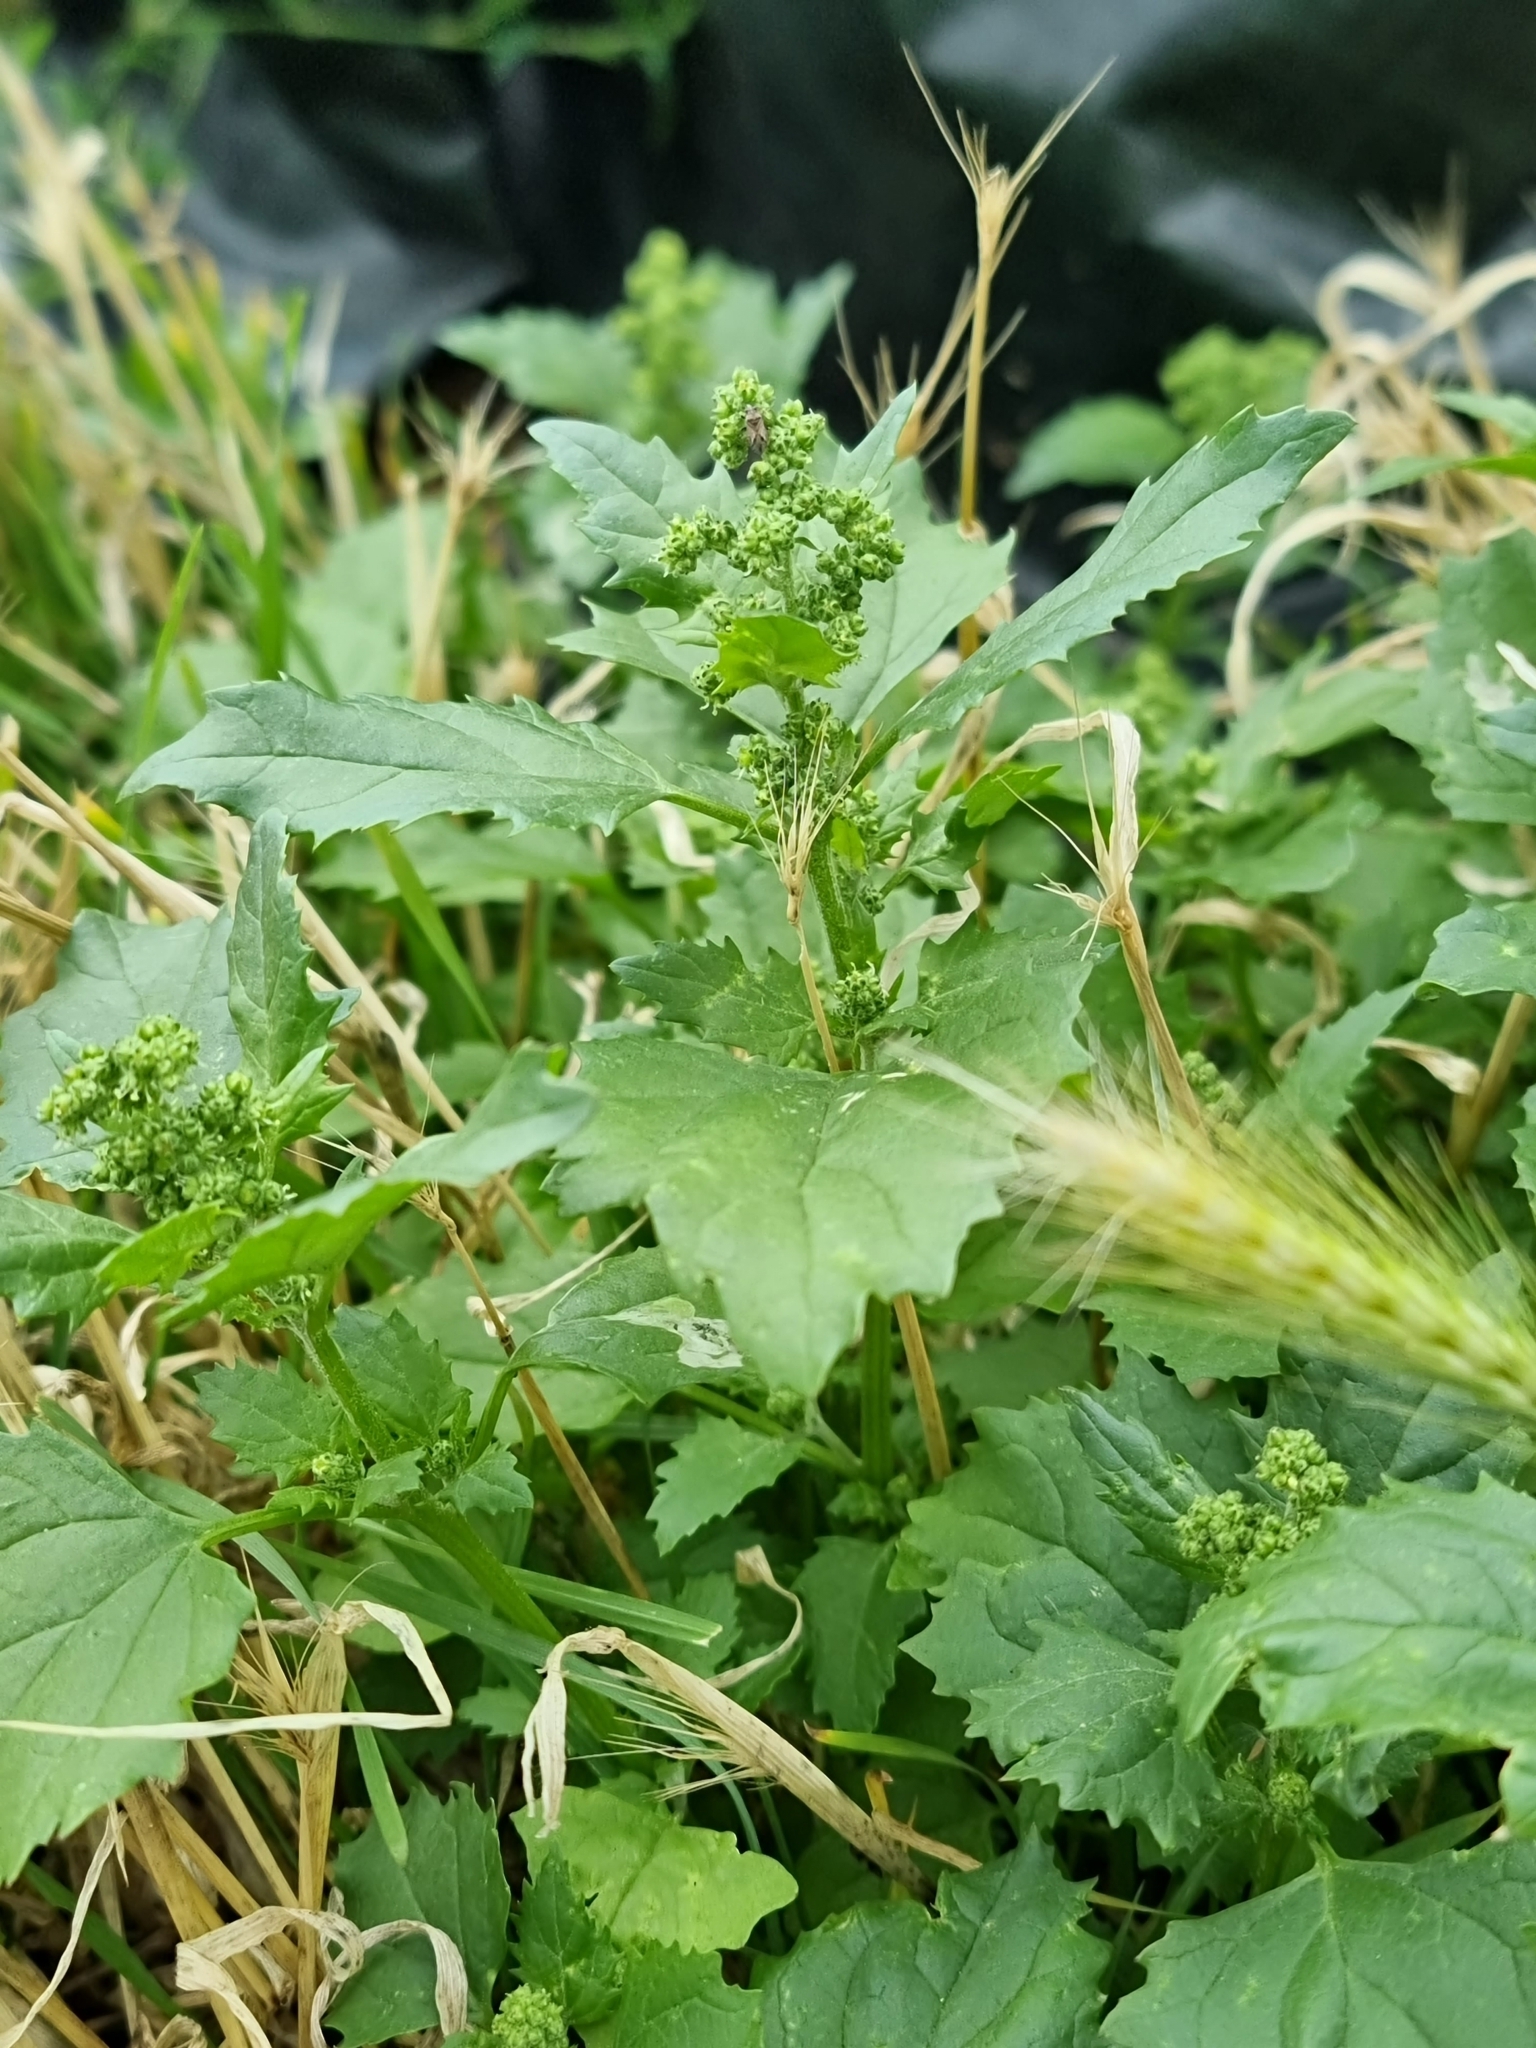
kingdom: Plantae
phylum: Tracheophyta
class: Magnoliopsida
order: Caryophyllales
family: Amaranthaceae
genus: Chenopodiastrum
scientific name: Chenopodiastrum murale
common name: Sowbane
